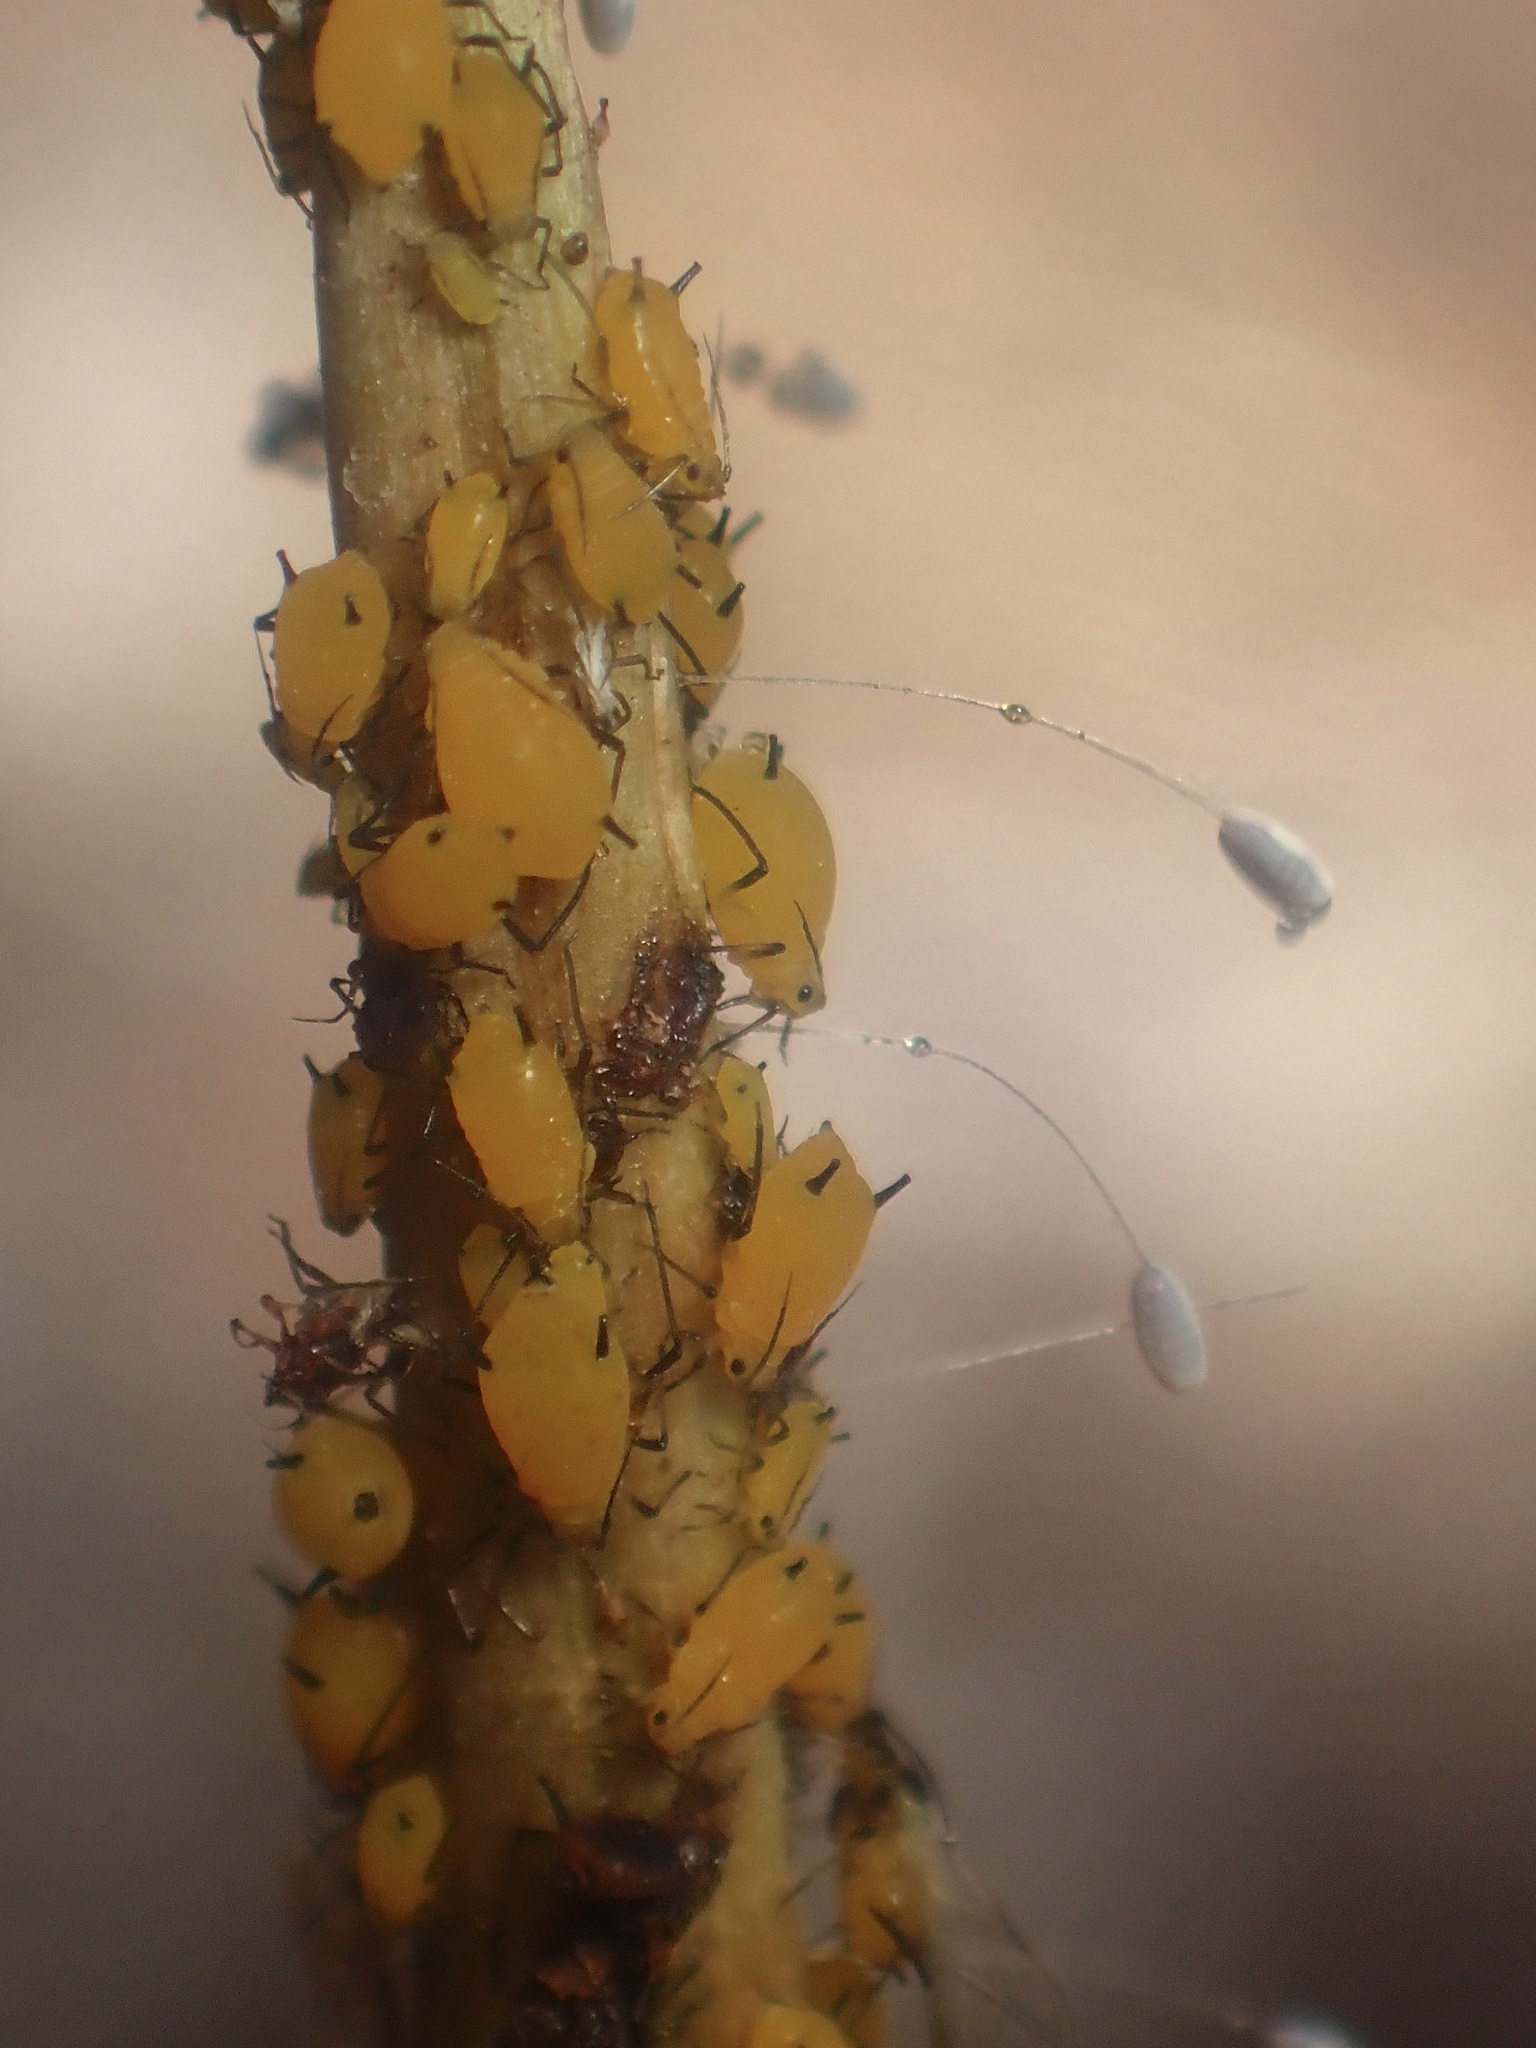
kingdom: Animalia
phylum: Arthropoda
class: Insecta
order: Hemiptera
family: Aphididae
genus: Aphis
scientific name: Aphis nerii
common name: Oleander aphid
